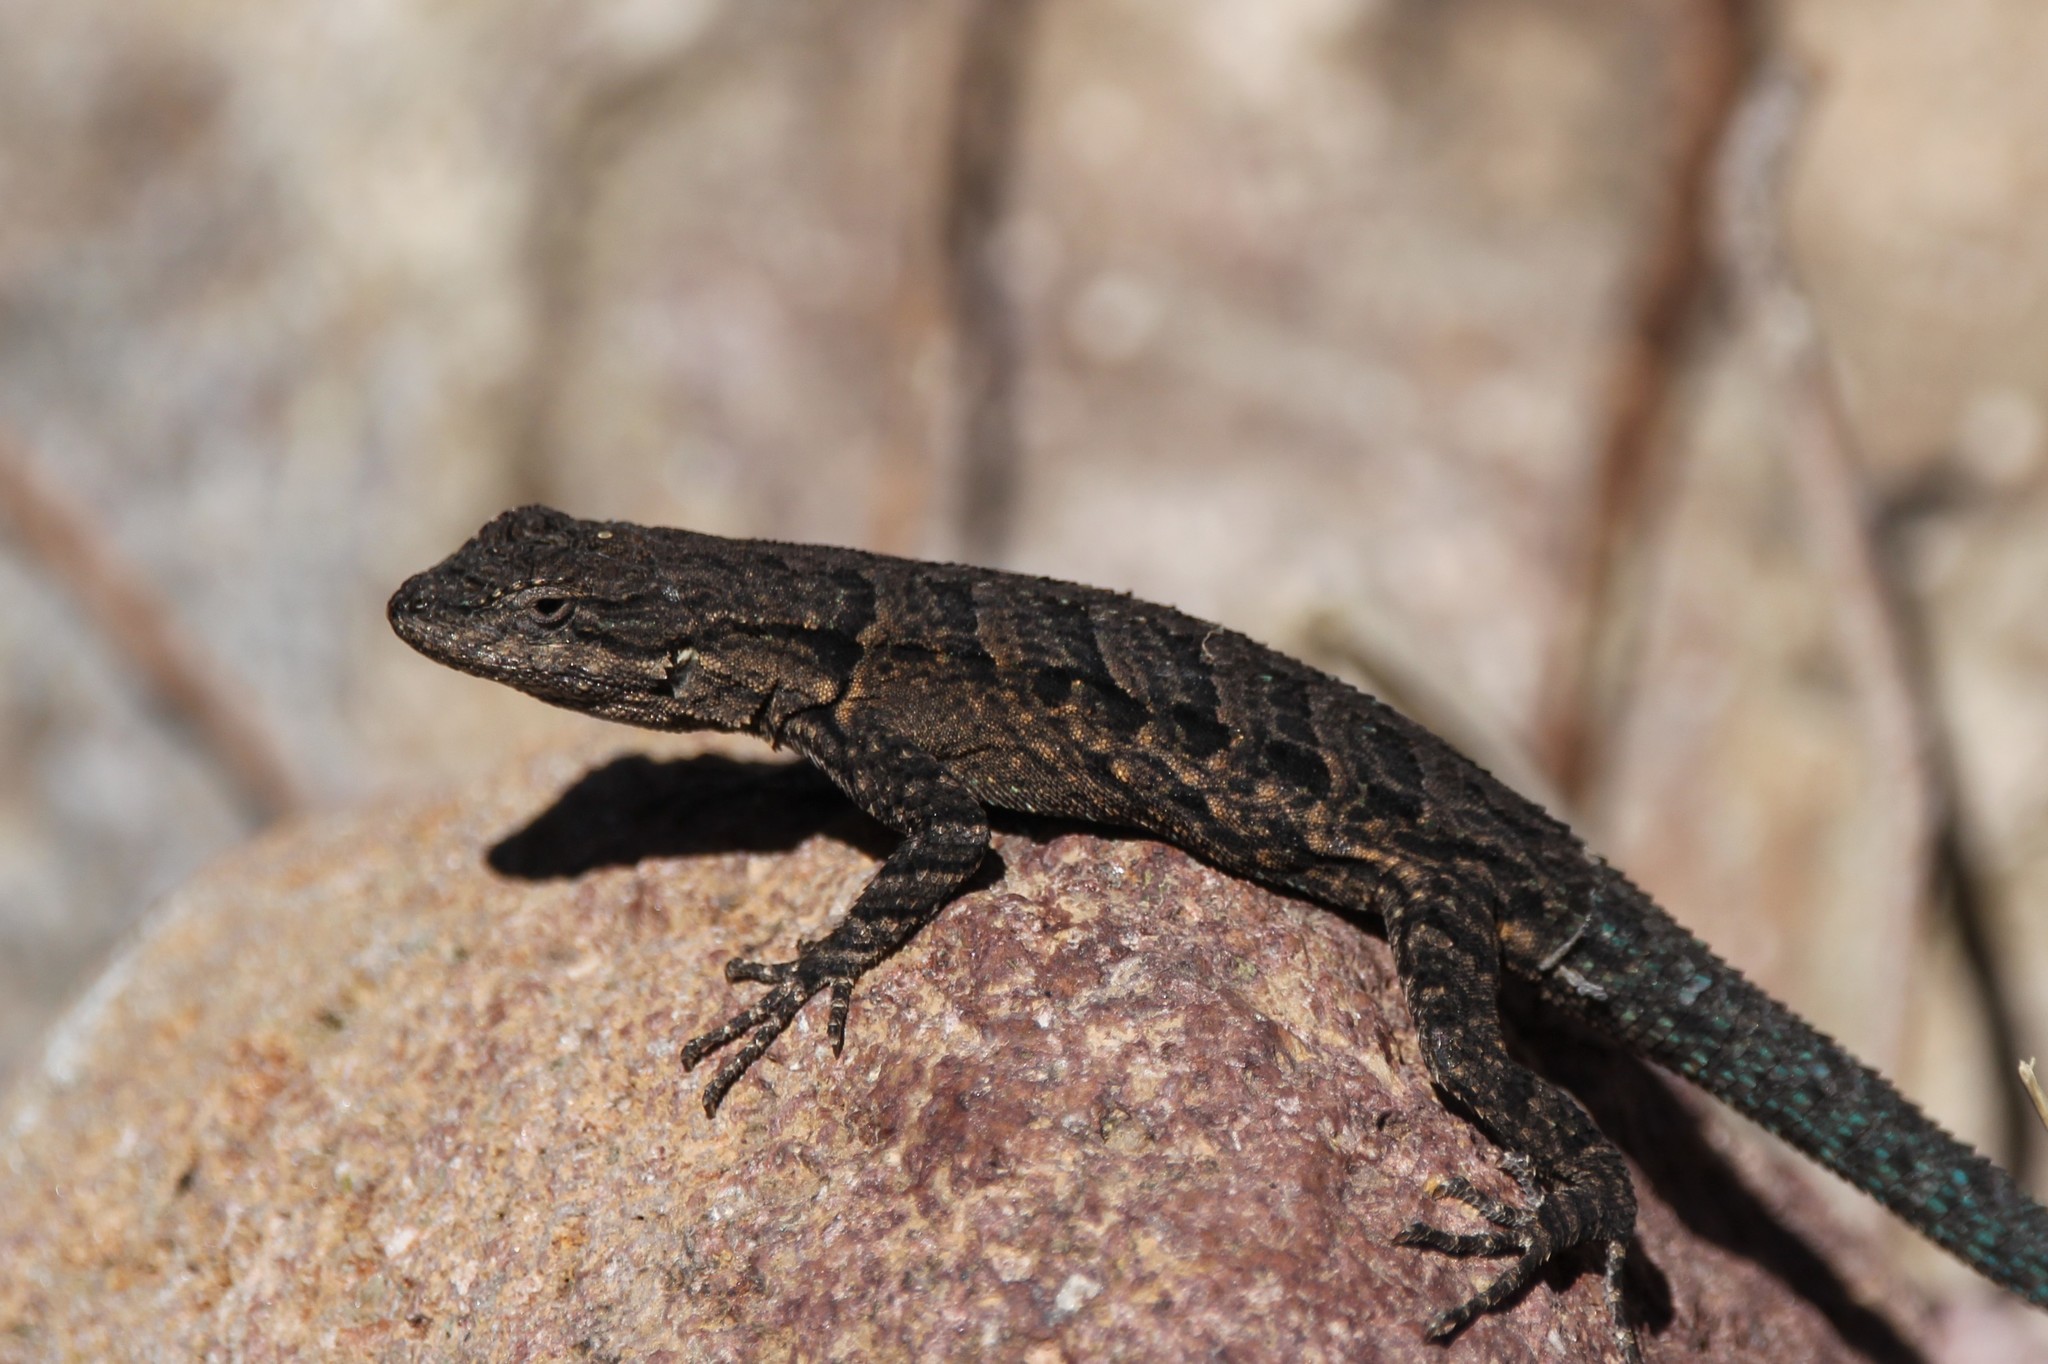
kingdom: Animalia
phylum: Chordata
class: Squamata
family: Phrynosomatidae
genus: Urosaurus
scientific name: Urosaurus ornatus
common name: Ornate tree lizard
